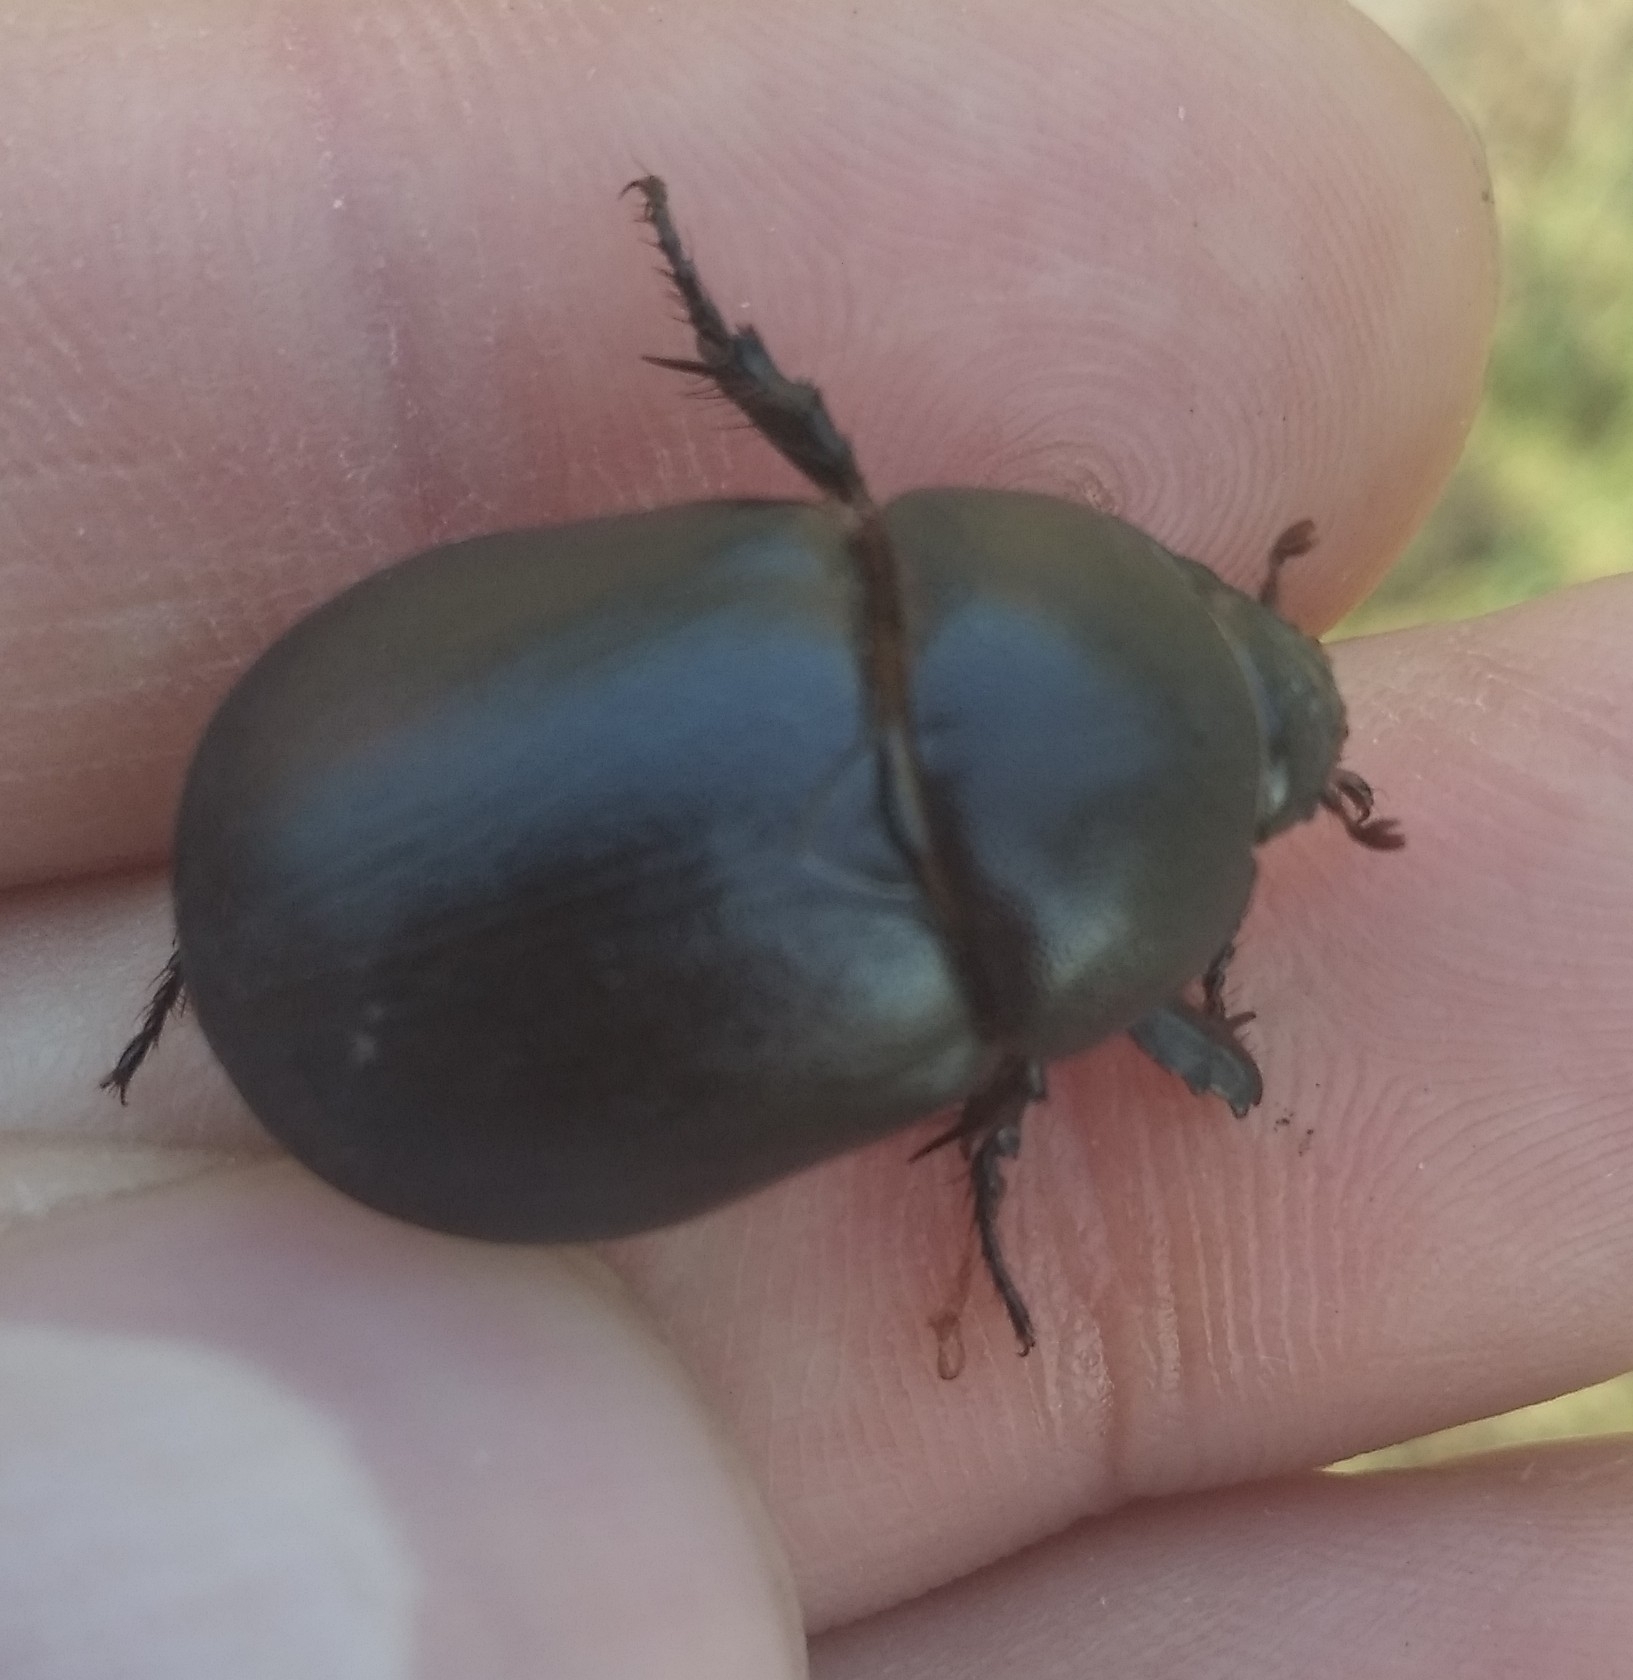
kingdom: Animalia
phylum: Arthropoda
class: Insecta
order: Coleoptera
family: Scarabaeidae
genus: Pentodon
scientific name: Pentodon idiota
